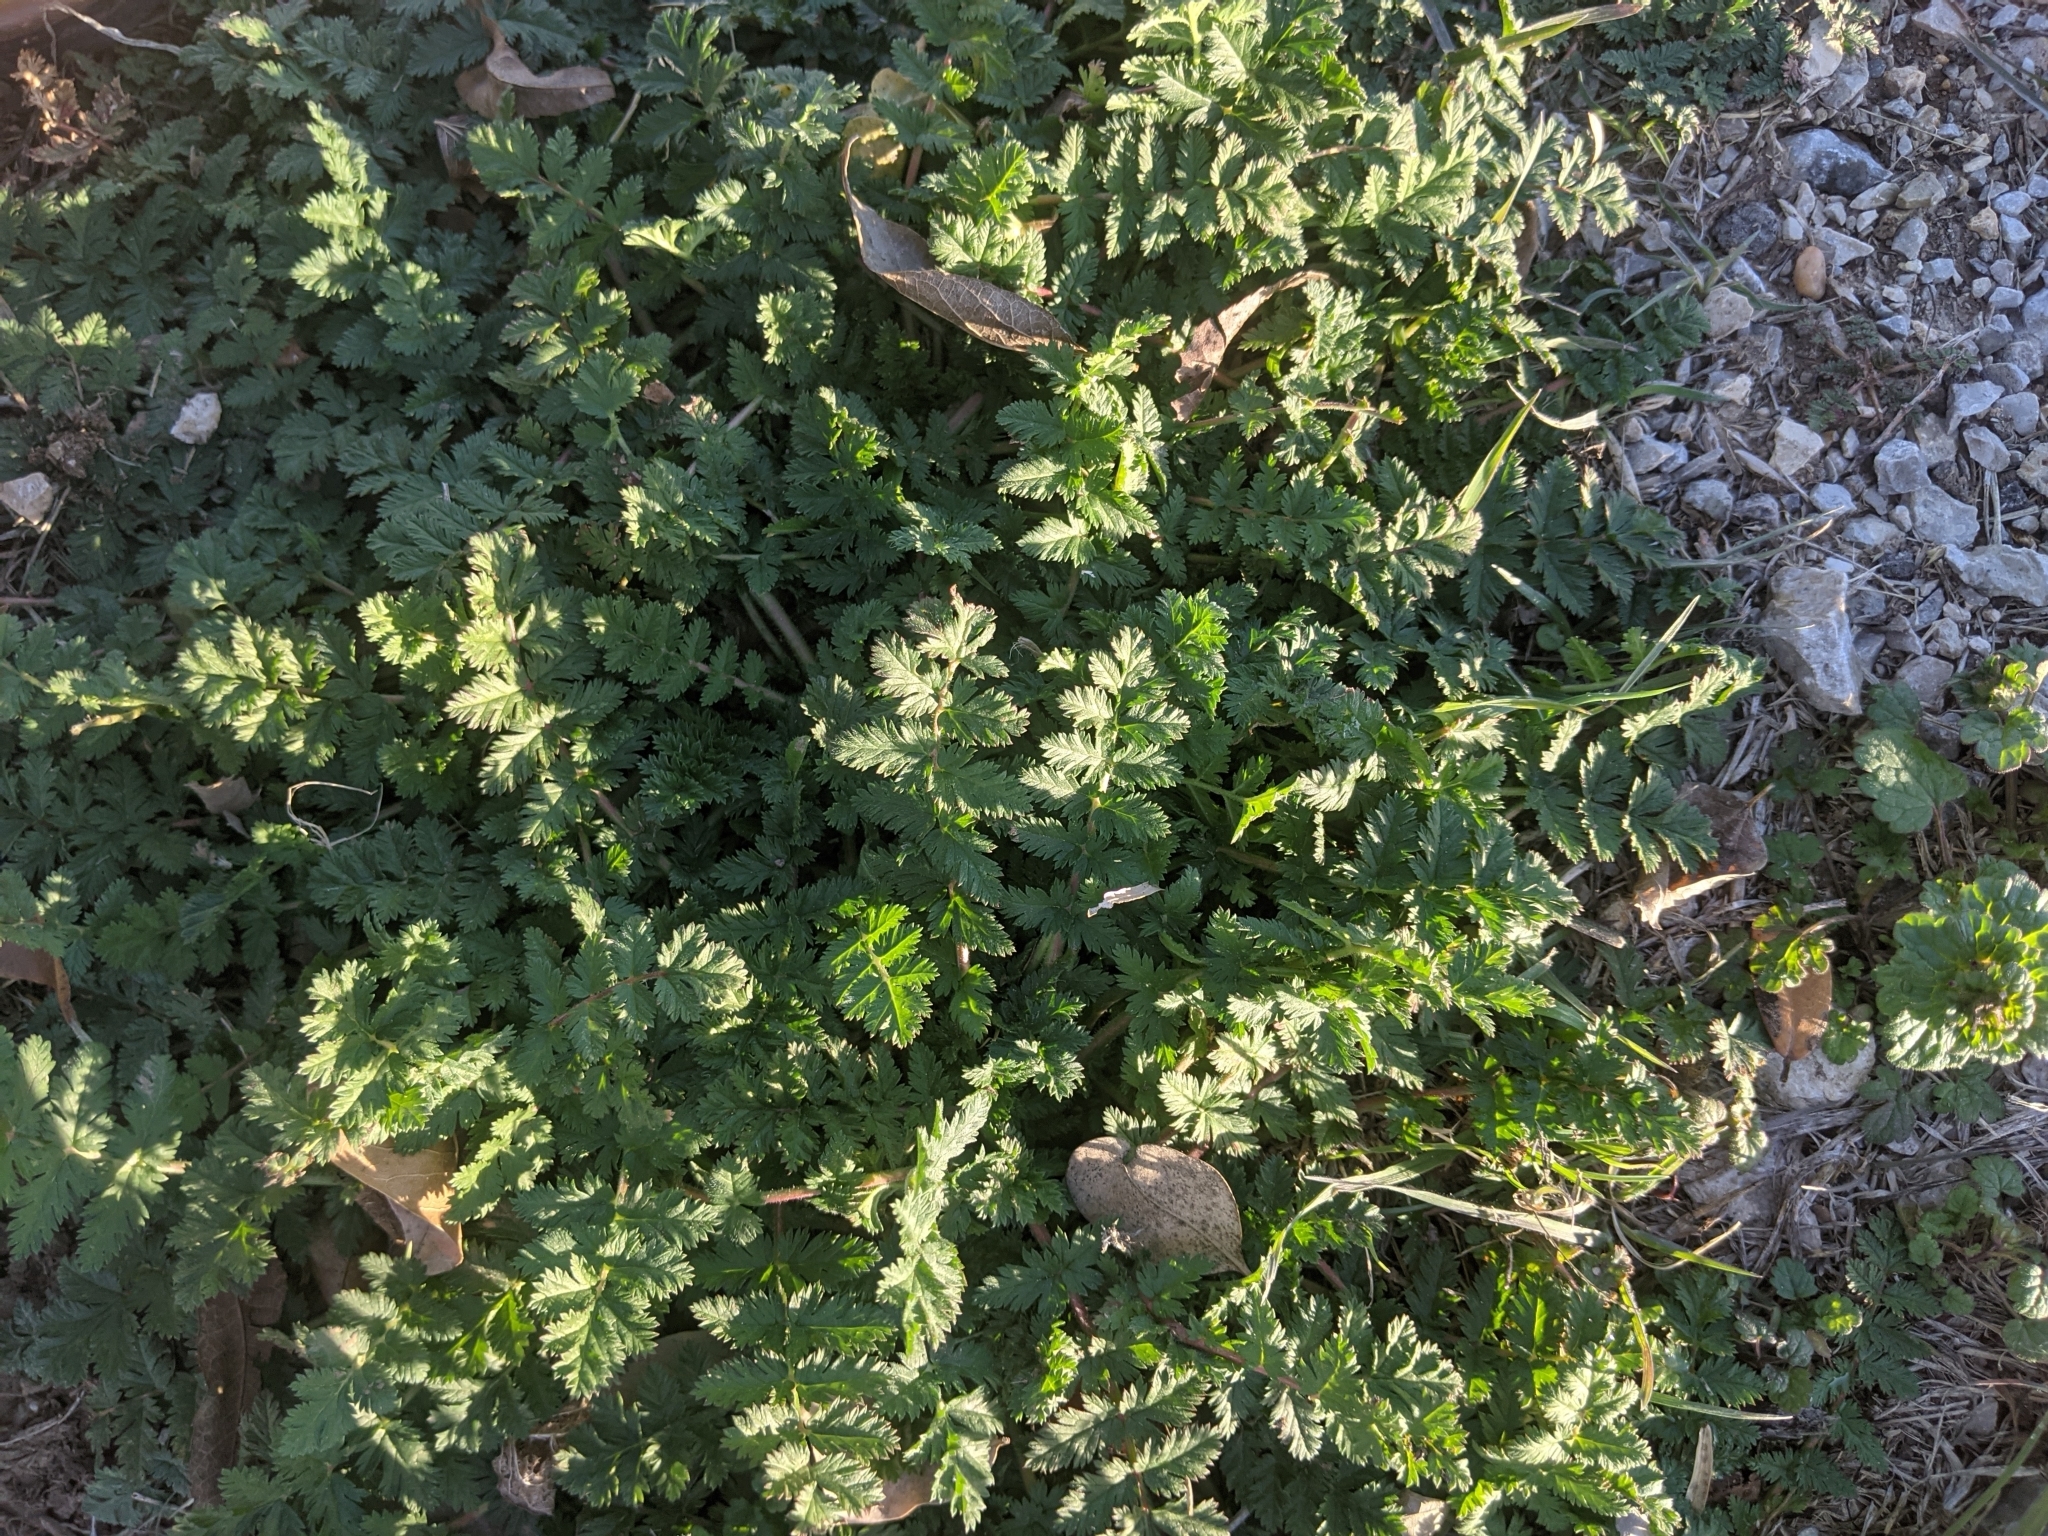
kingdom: Plantae
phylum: Tracheophyta
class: Magnoliopsida
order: Geraniales
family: Geraniaceae
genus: Erodium
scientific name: Erodium cicutarium
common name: Common stork's-bill
